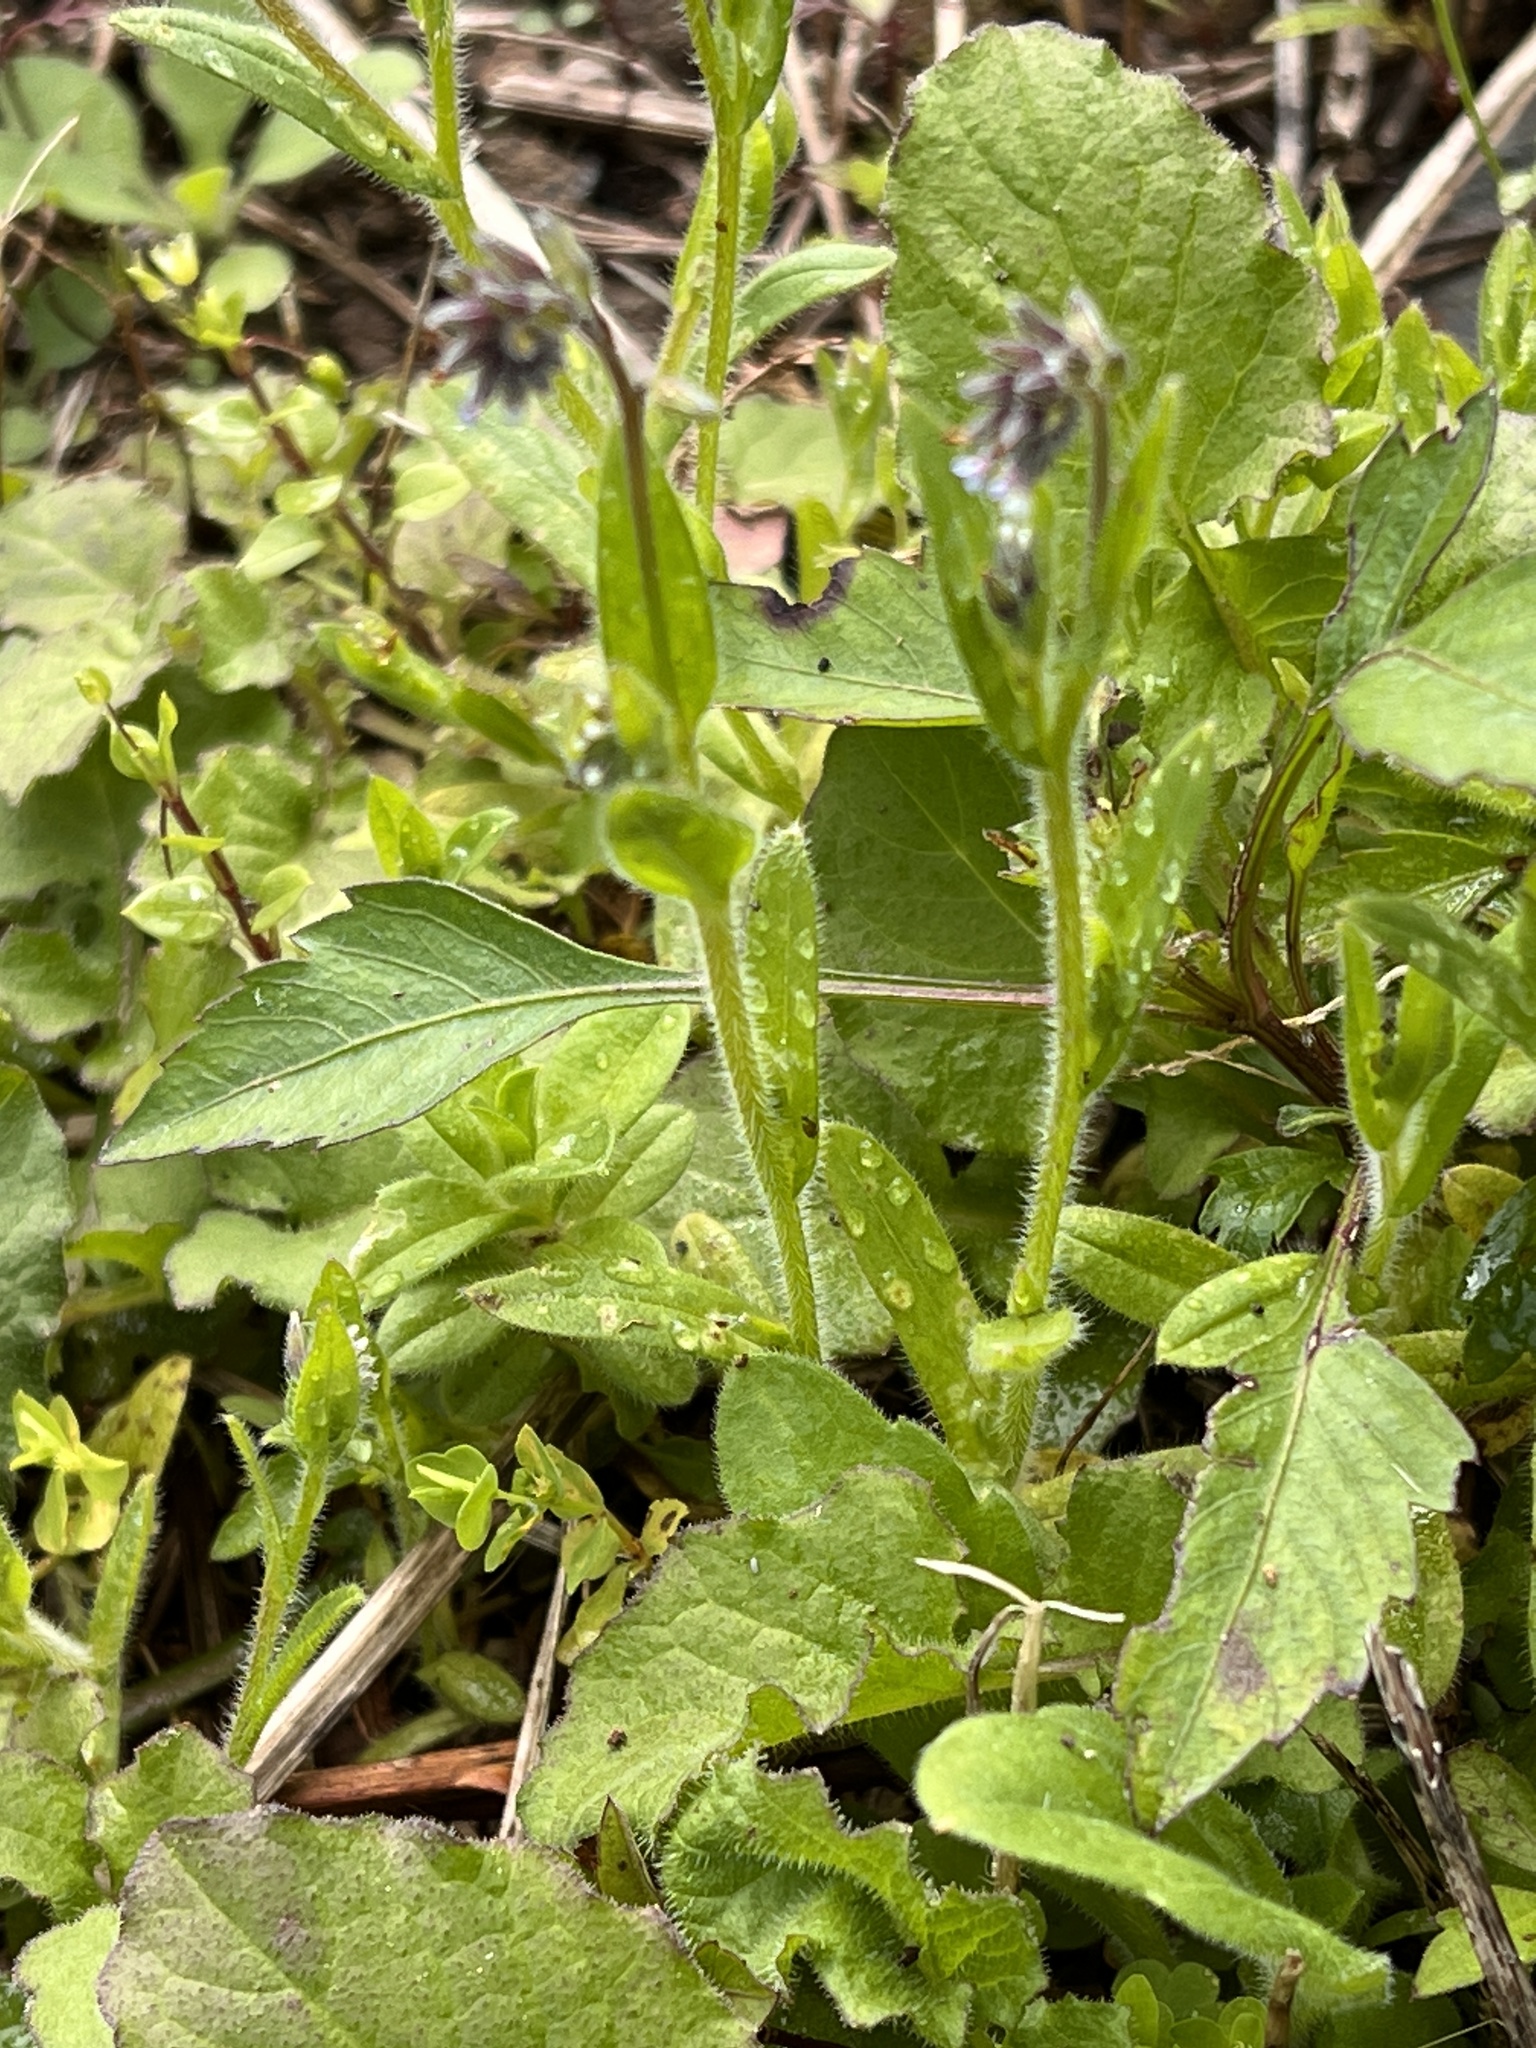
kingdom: Plantae
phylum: Tracheophyta
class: Magnoliopsida
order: Boraginales
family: Boraginaceae
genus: Myosotis
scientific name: Myosotis discolor
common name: Changing forget-me-not
